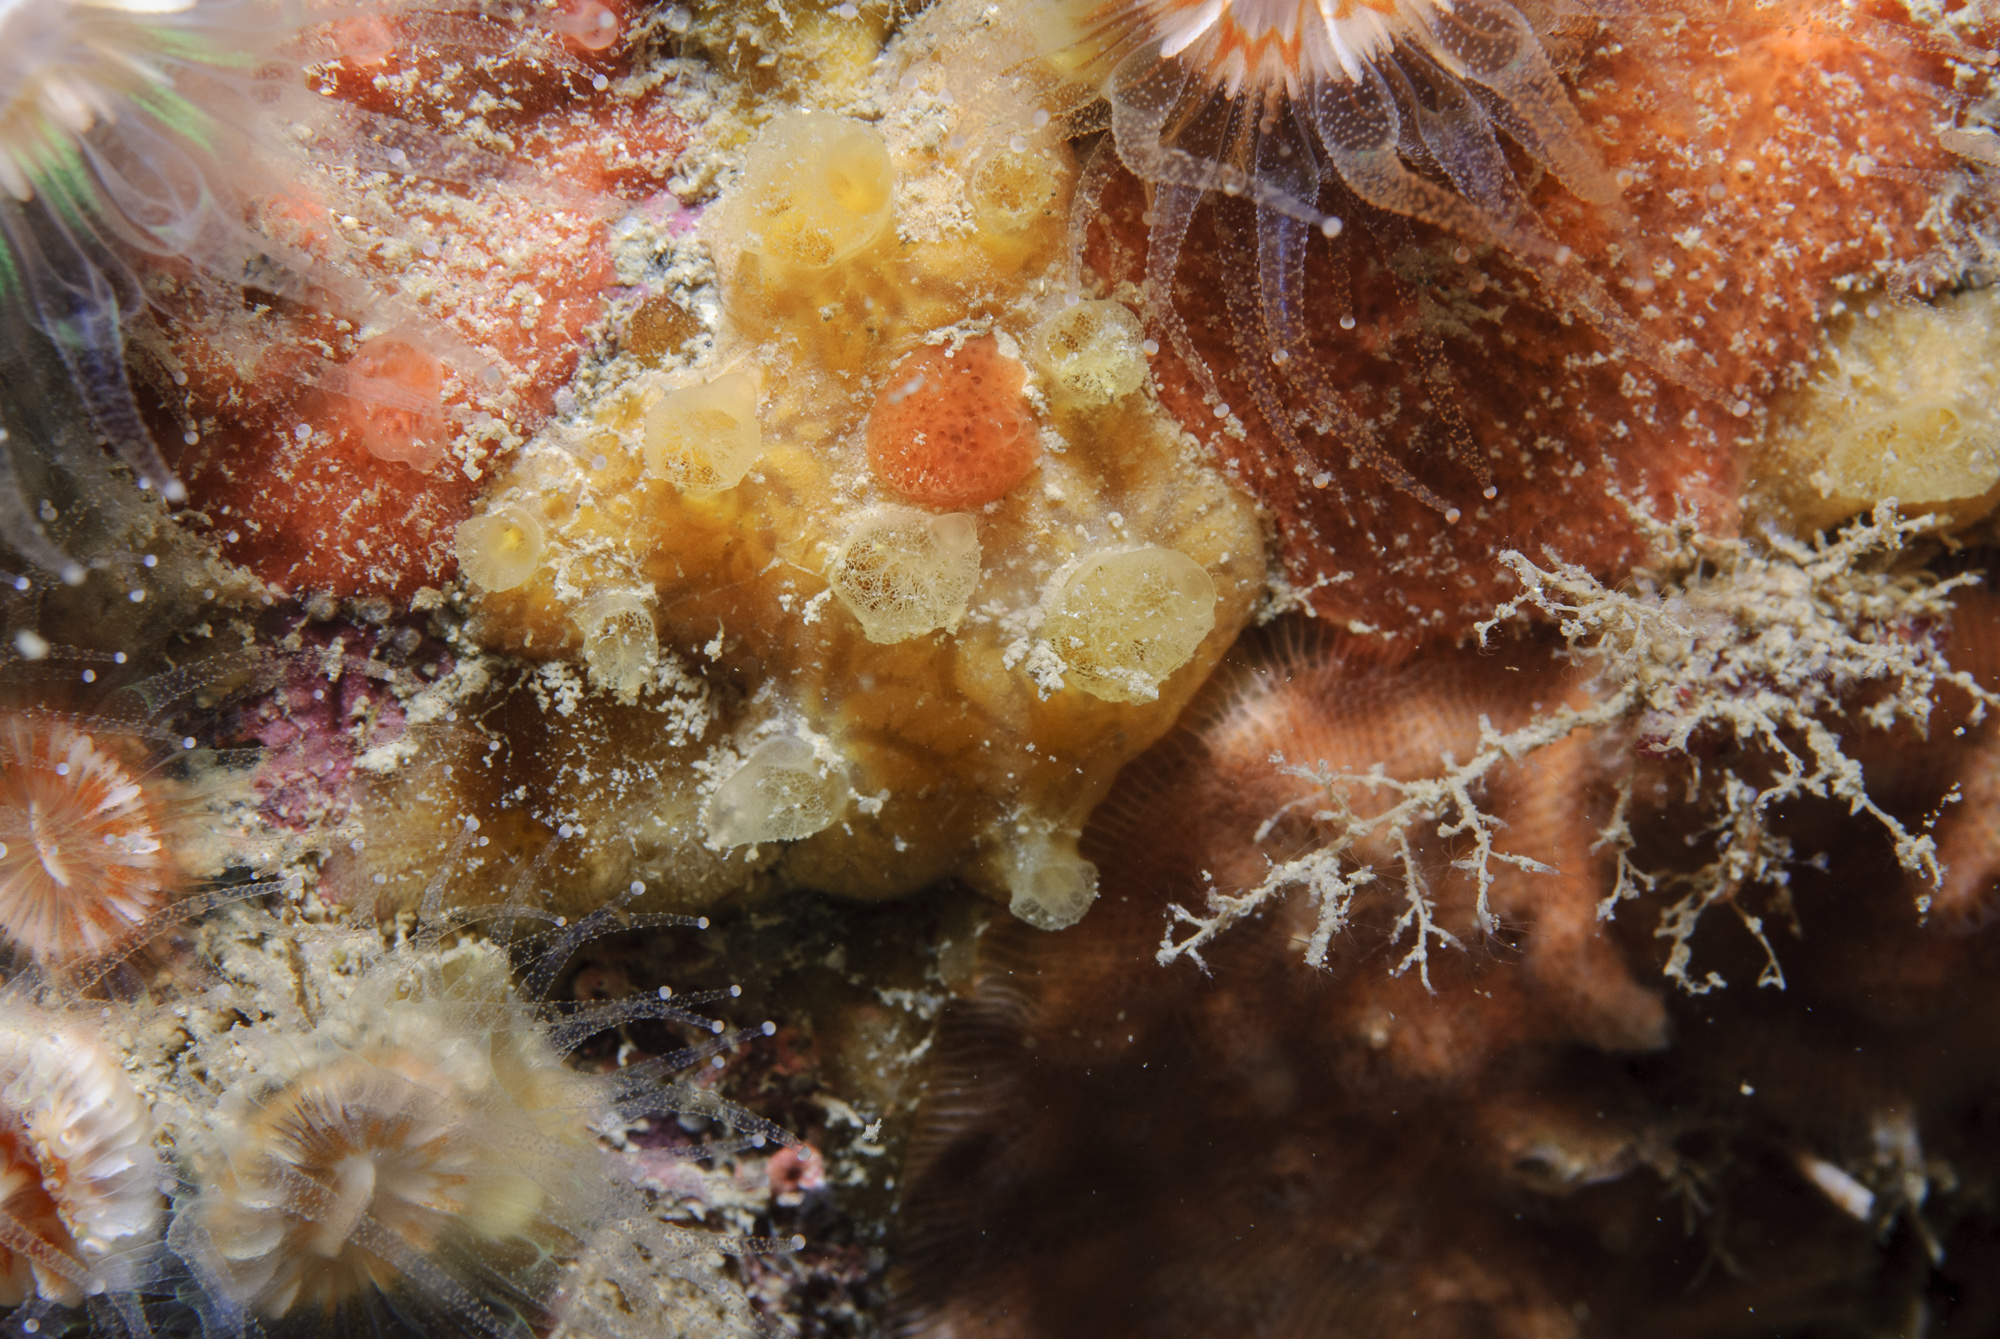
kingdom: Animalia
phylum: Porifera
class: Demospongiae
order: Poecilosclerida
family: Hymedesmiidae
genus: Hymedesmia
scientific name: Hymedesmia rathlinia
